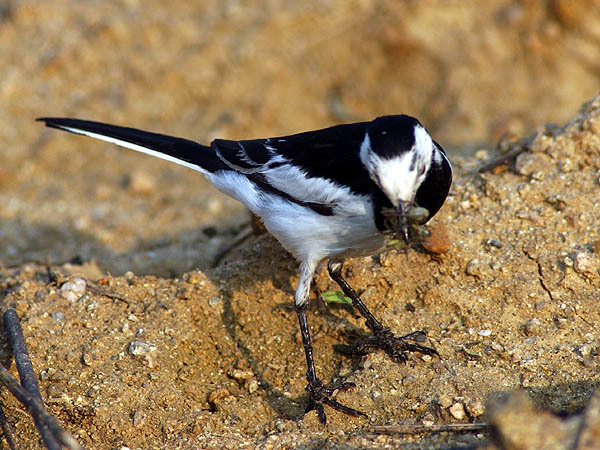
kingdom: Animalia
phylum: Chordata
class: Aves
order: Passeriformes
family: Motacillidae
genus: Motacilla
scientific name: Motacilla alba
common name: White wagtail
